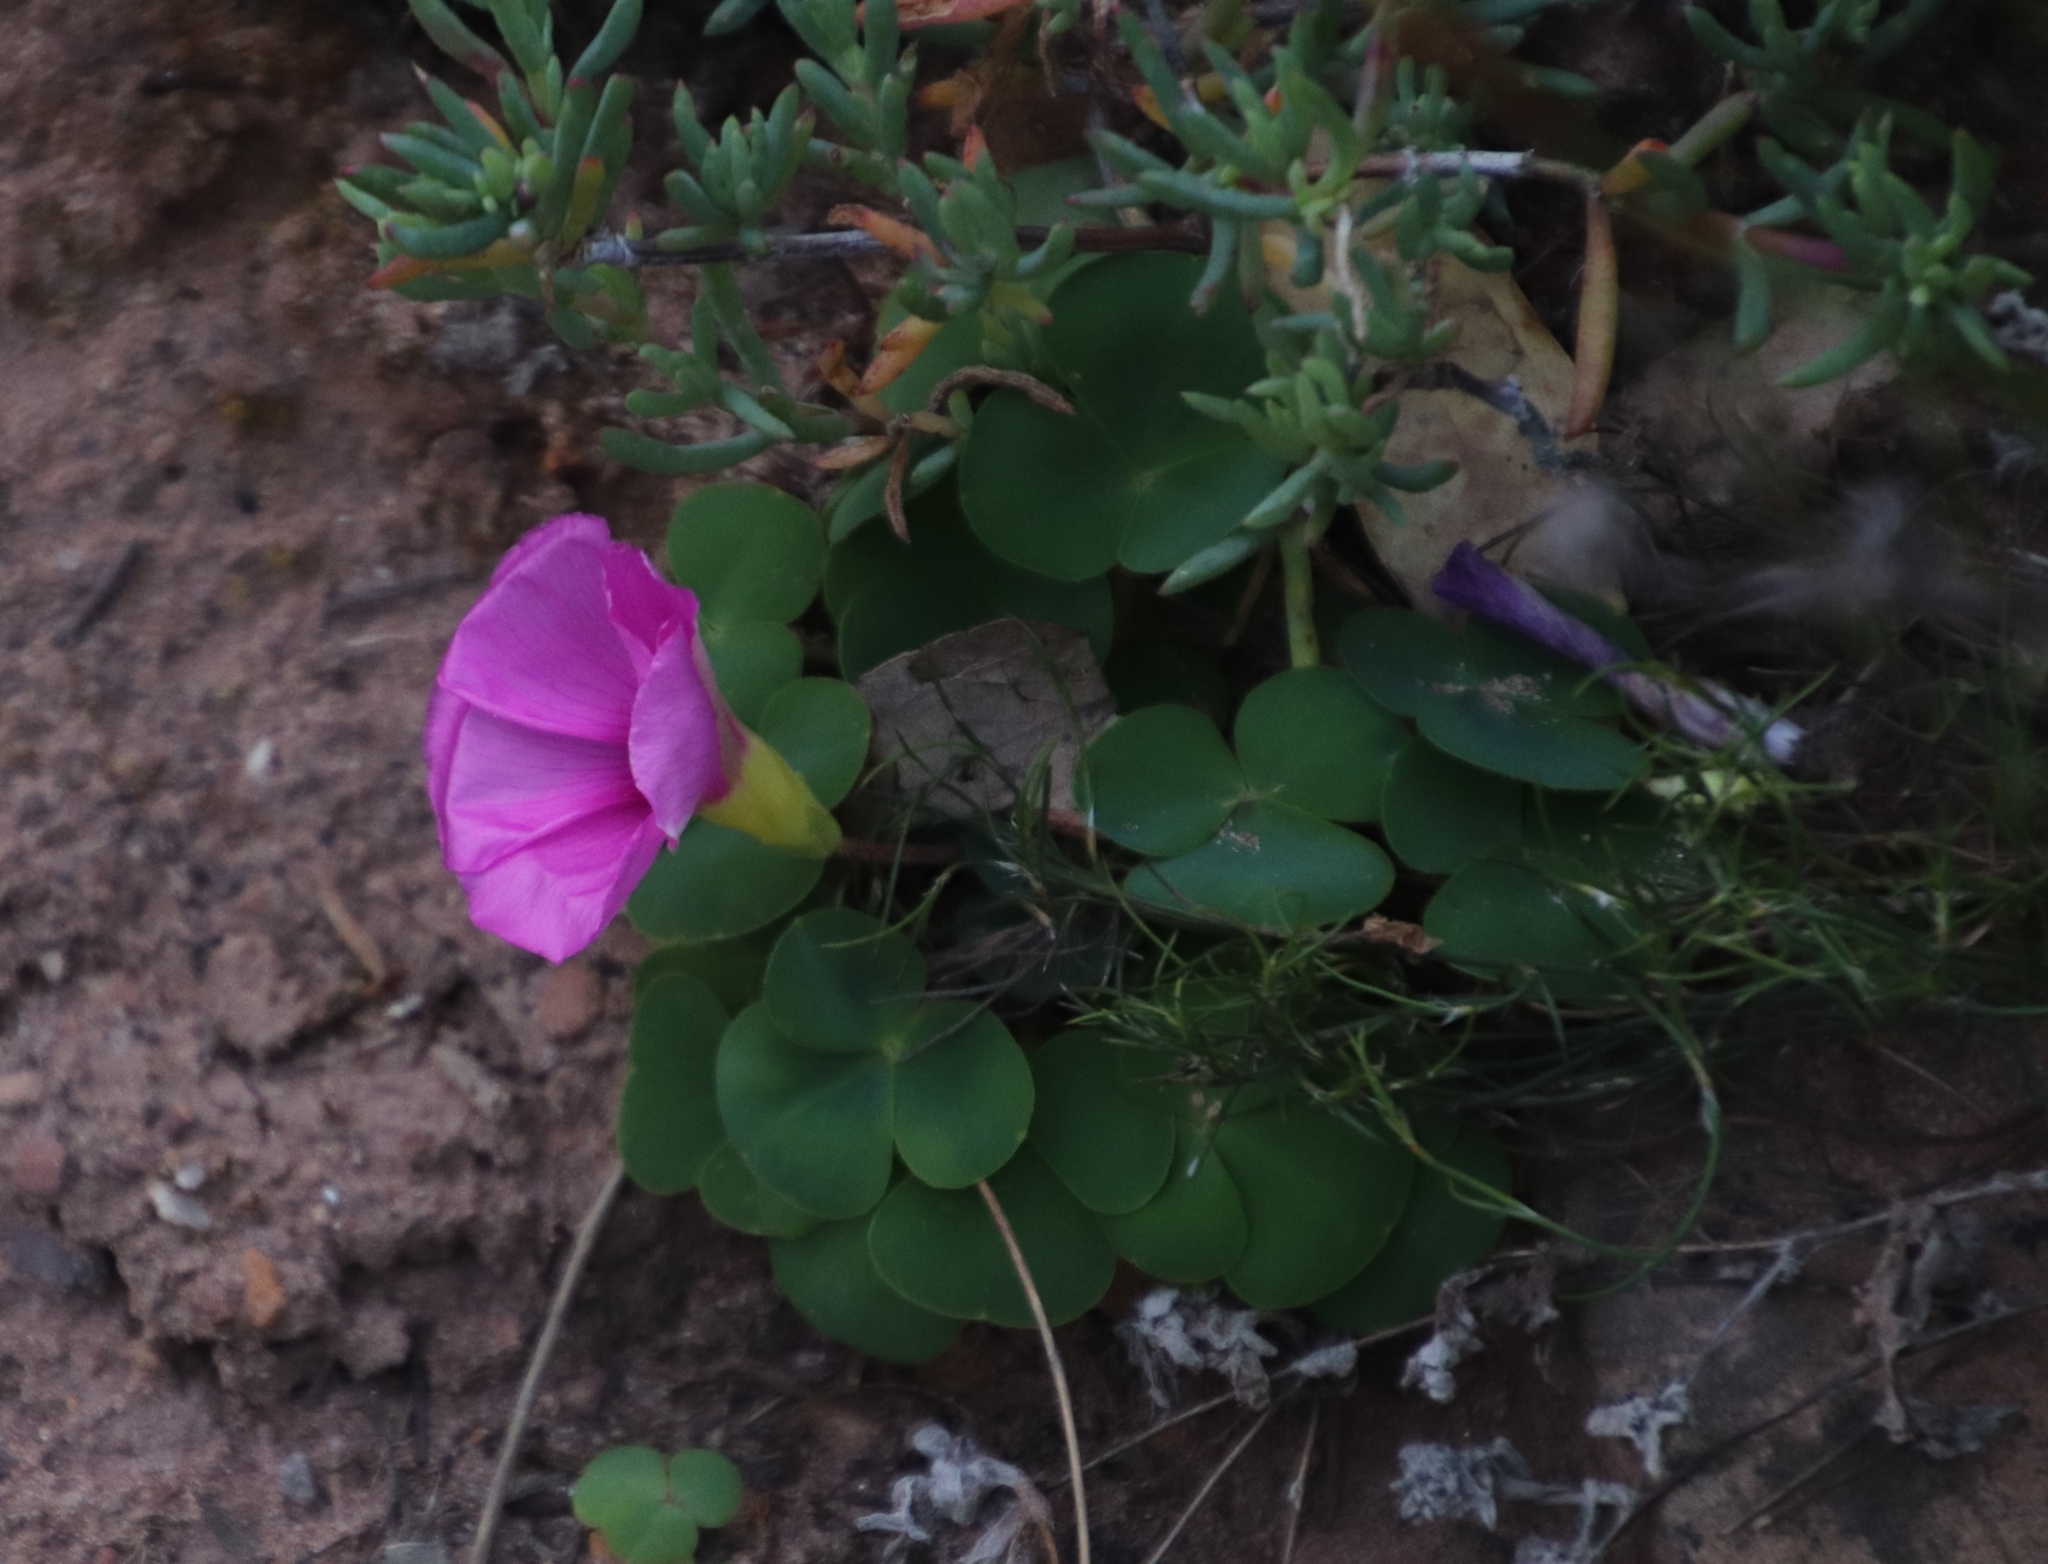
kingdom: Plantae
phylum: Tracheophyta
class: Magnoliopsida
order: Oxalidales
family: Oxalidaceae
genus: Oxalis
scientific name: Oxalis purpurea
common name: Purple woodsorrel
